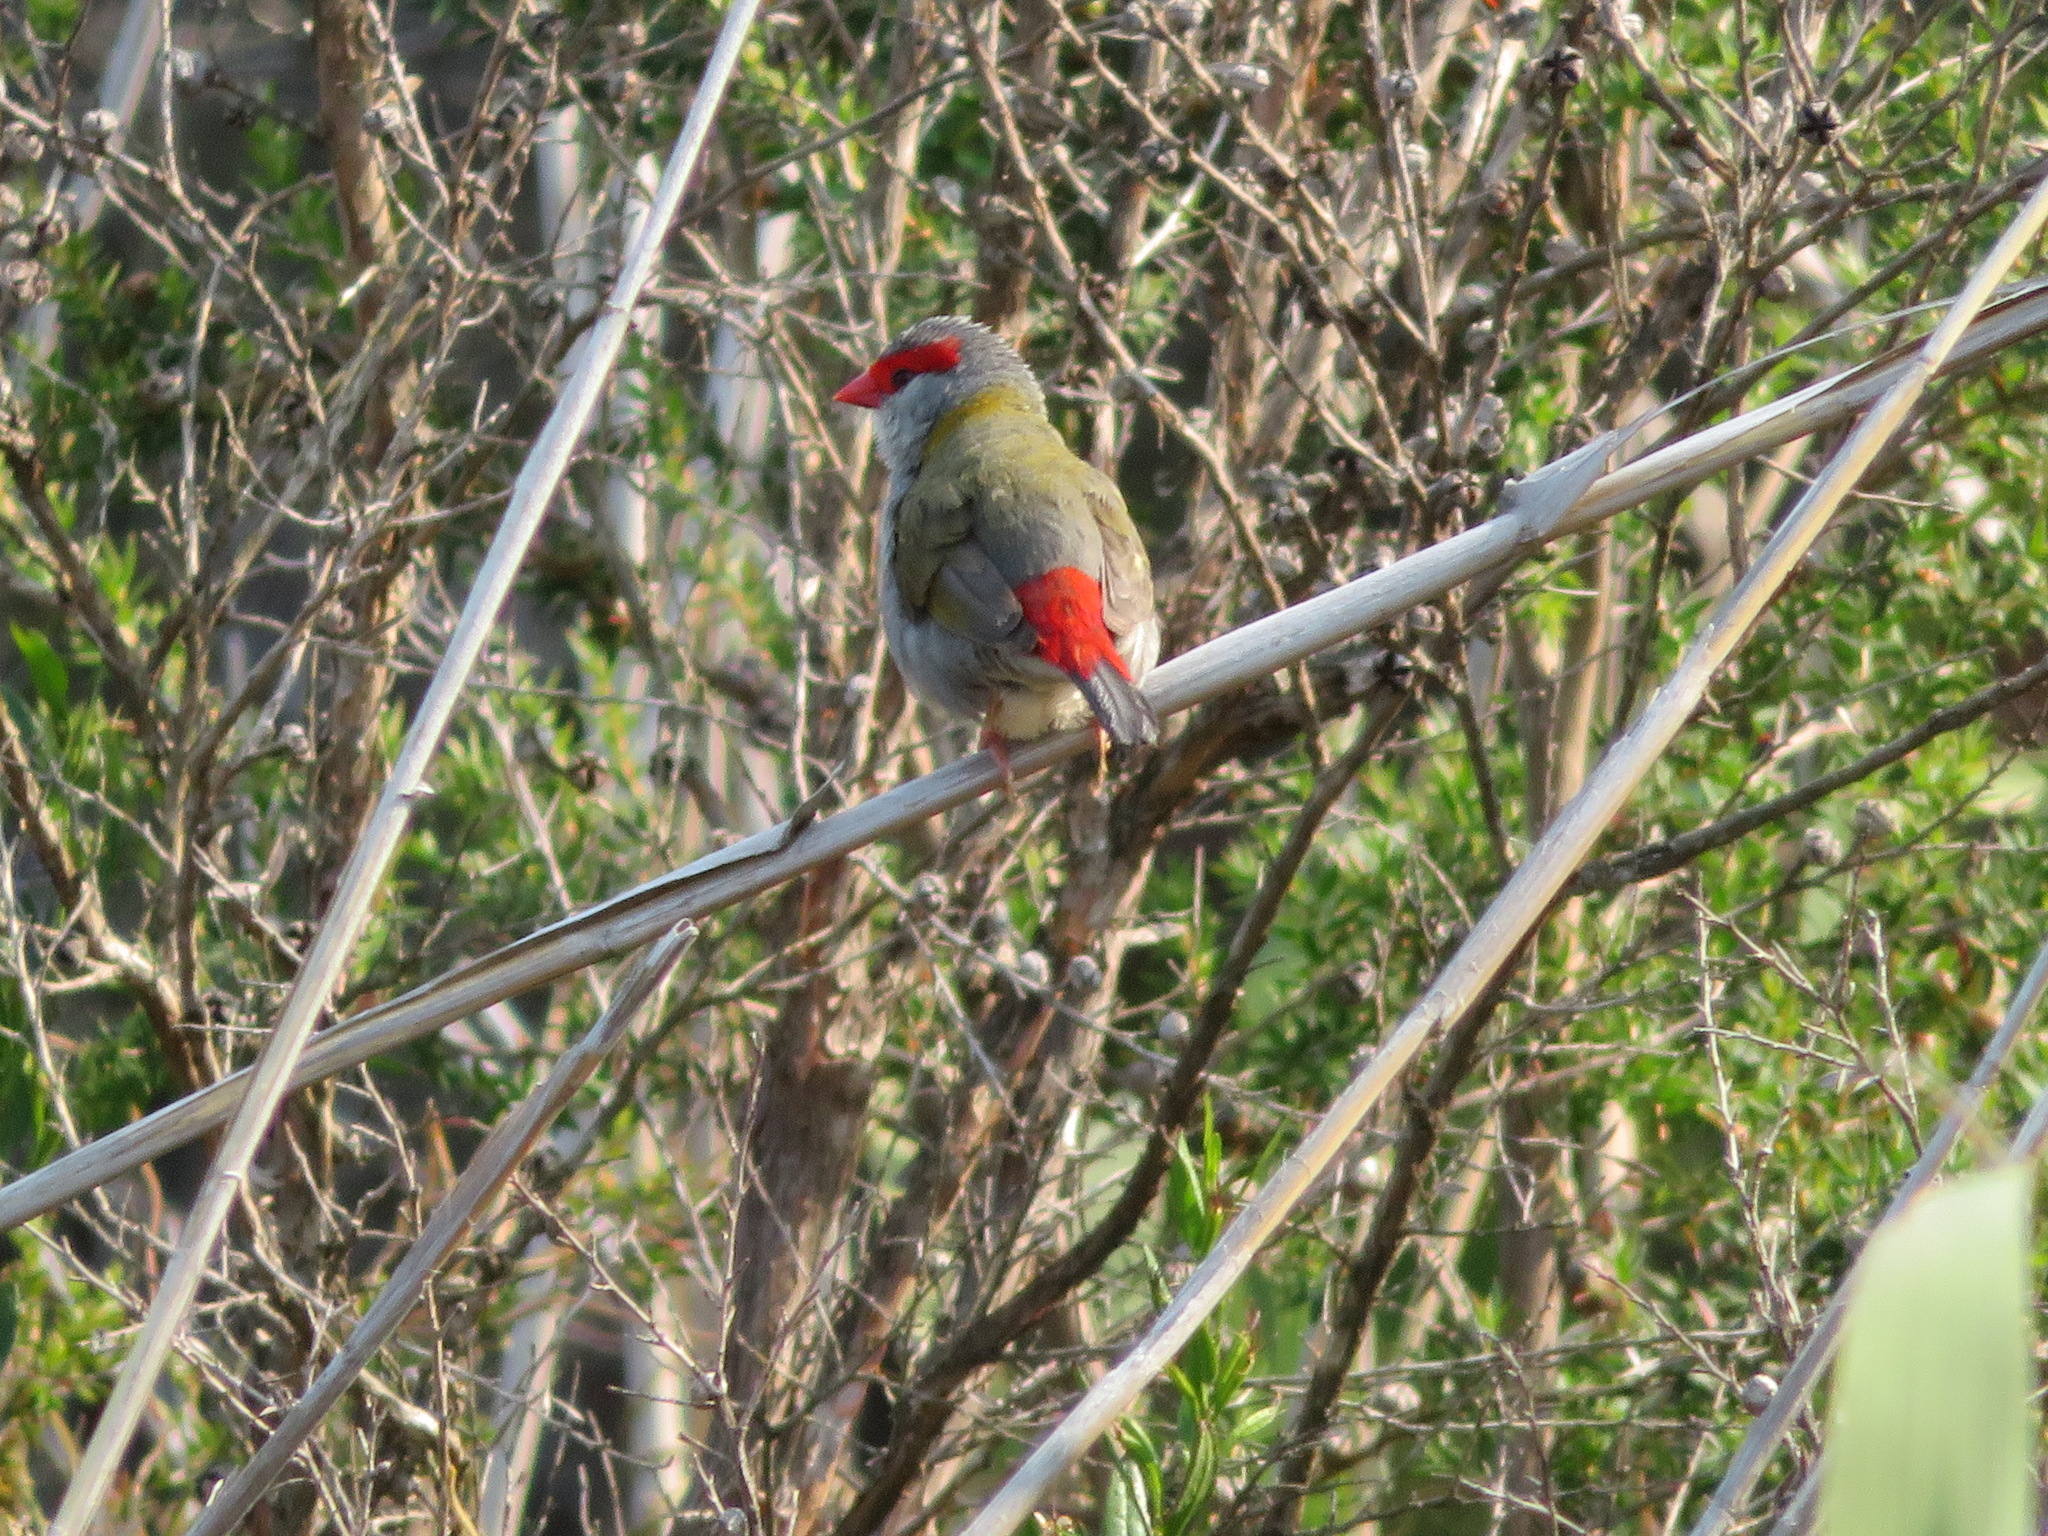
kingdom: Animalia
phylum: Chordata
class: Aves
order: Passeriformes
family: Estrildidae
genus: Neochmia
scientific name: Neochmia temporalis
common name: Red-browed finch
